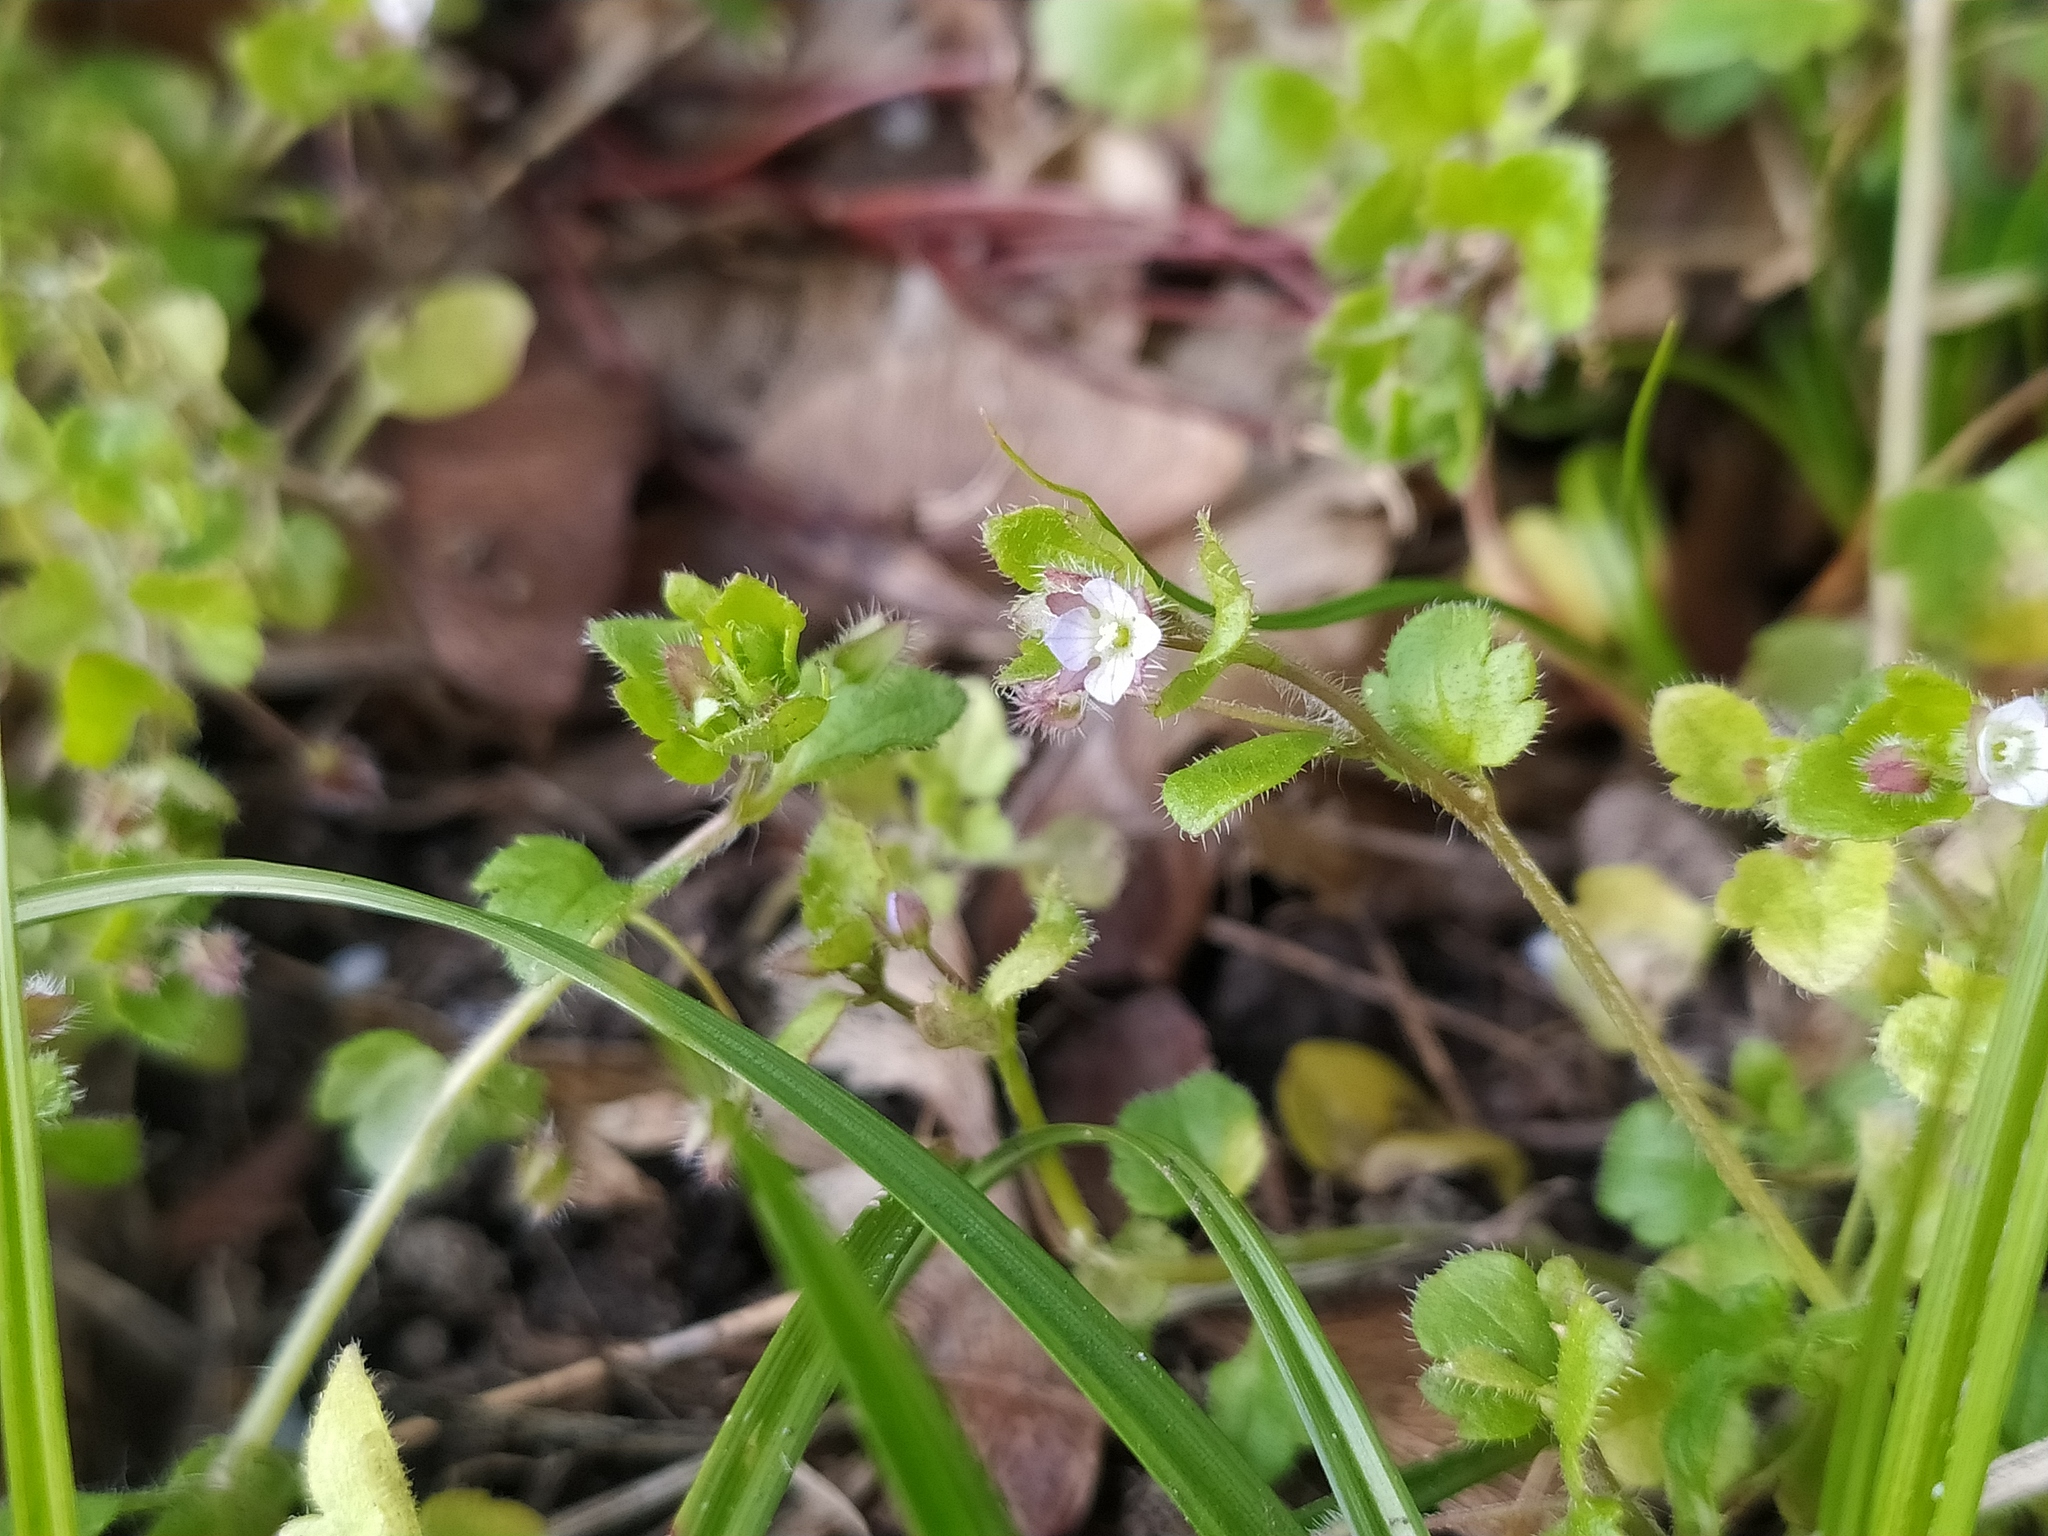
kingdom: Plantae
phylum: Tracheophyta
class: Magnoliopsida
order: Lamiales
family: Plantaginaceae
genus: Veronica
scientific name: Veronica sublobata
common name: False ivy-leaved speedwell
